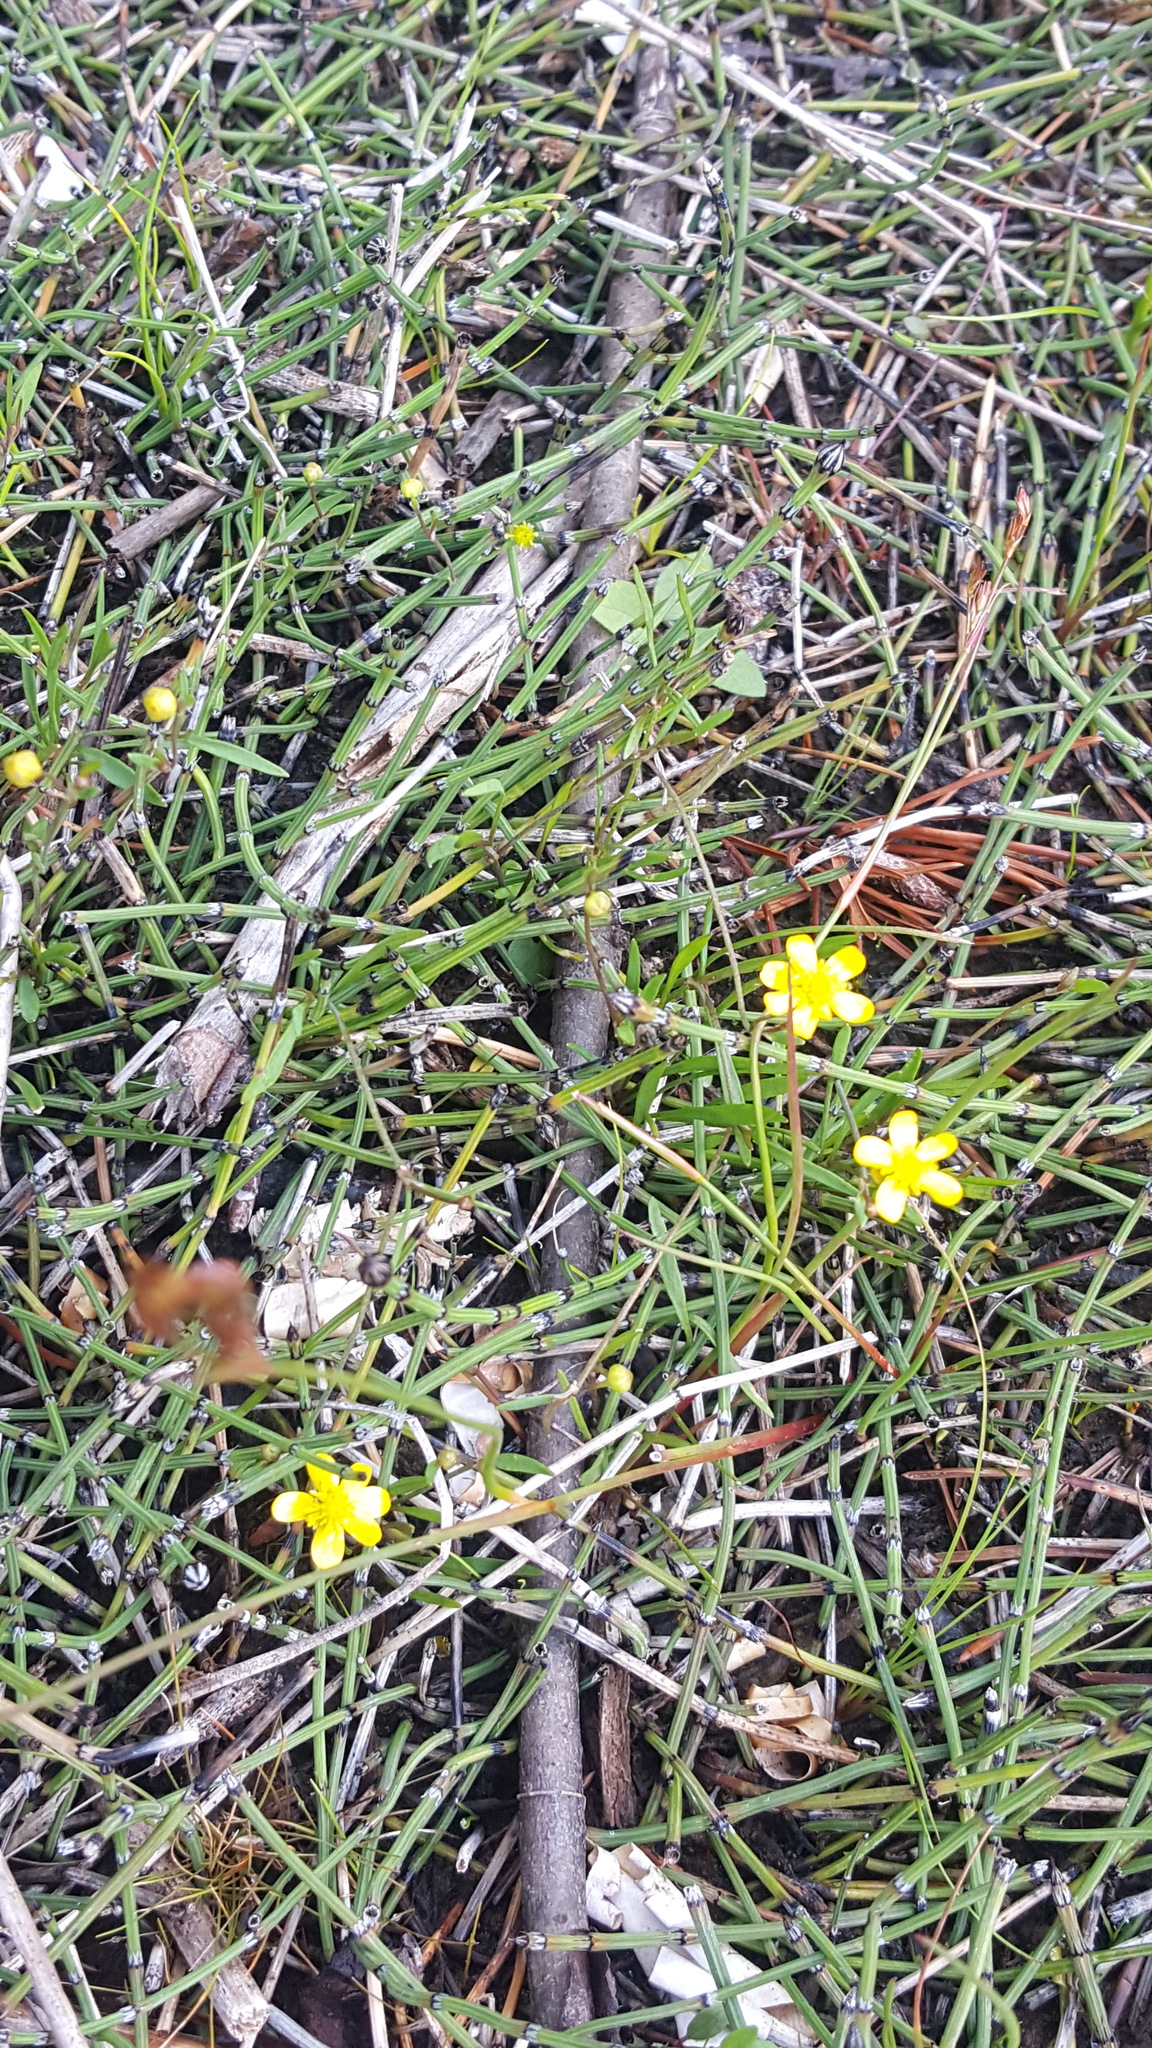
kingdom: Plantae
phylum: Tracheophyta
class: Magnoliopsida
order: Ranunculales
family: Ranunculaceae
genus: Ranunculus
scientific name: Ranunculus flammula
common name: Lesser spearwort
